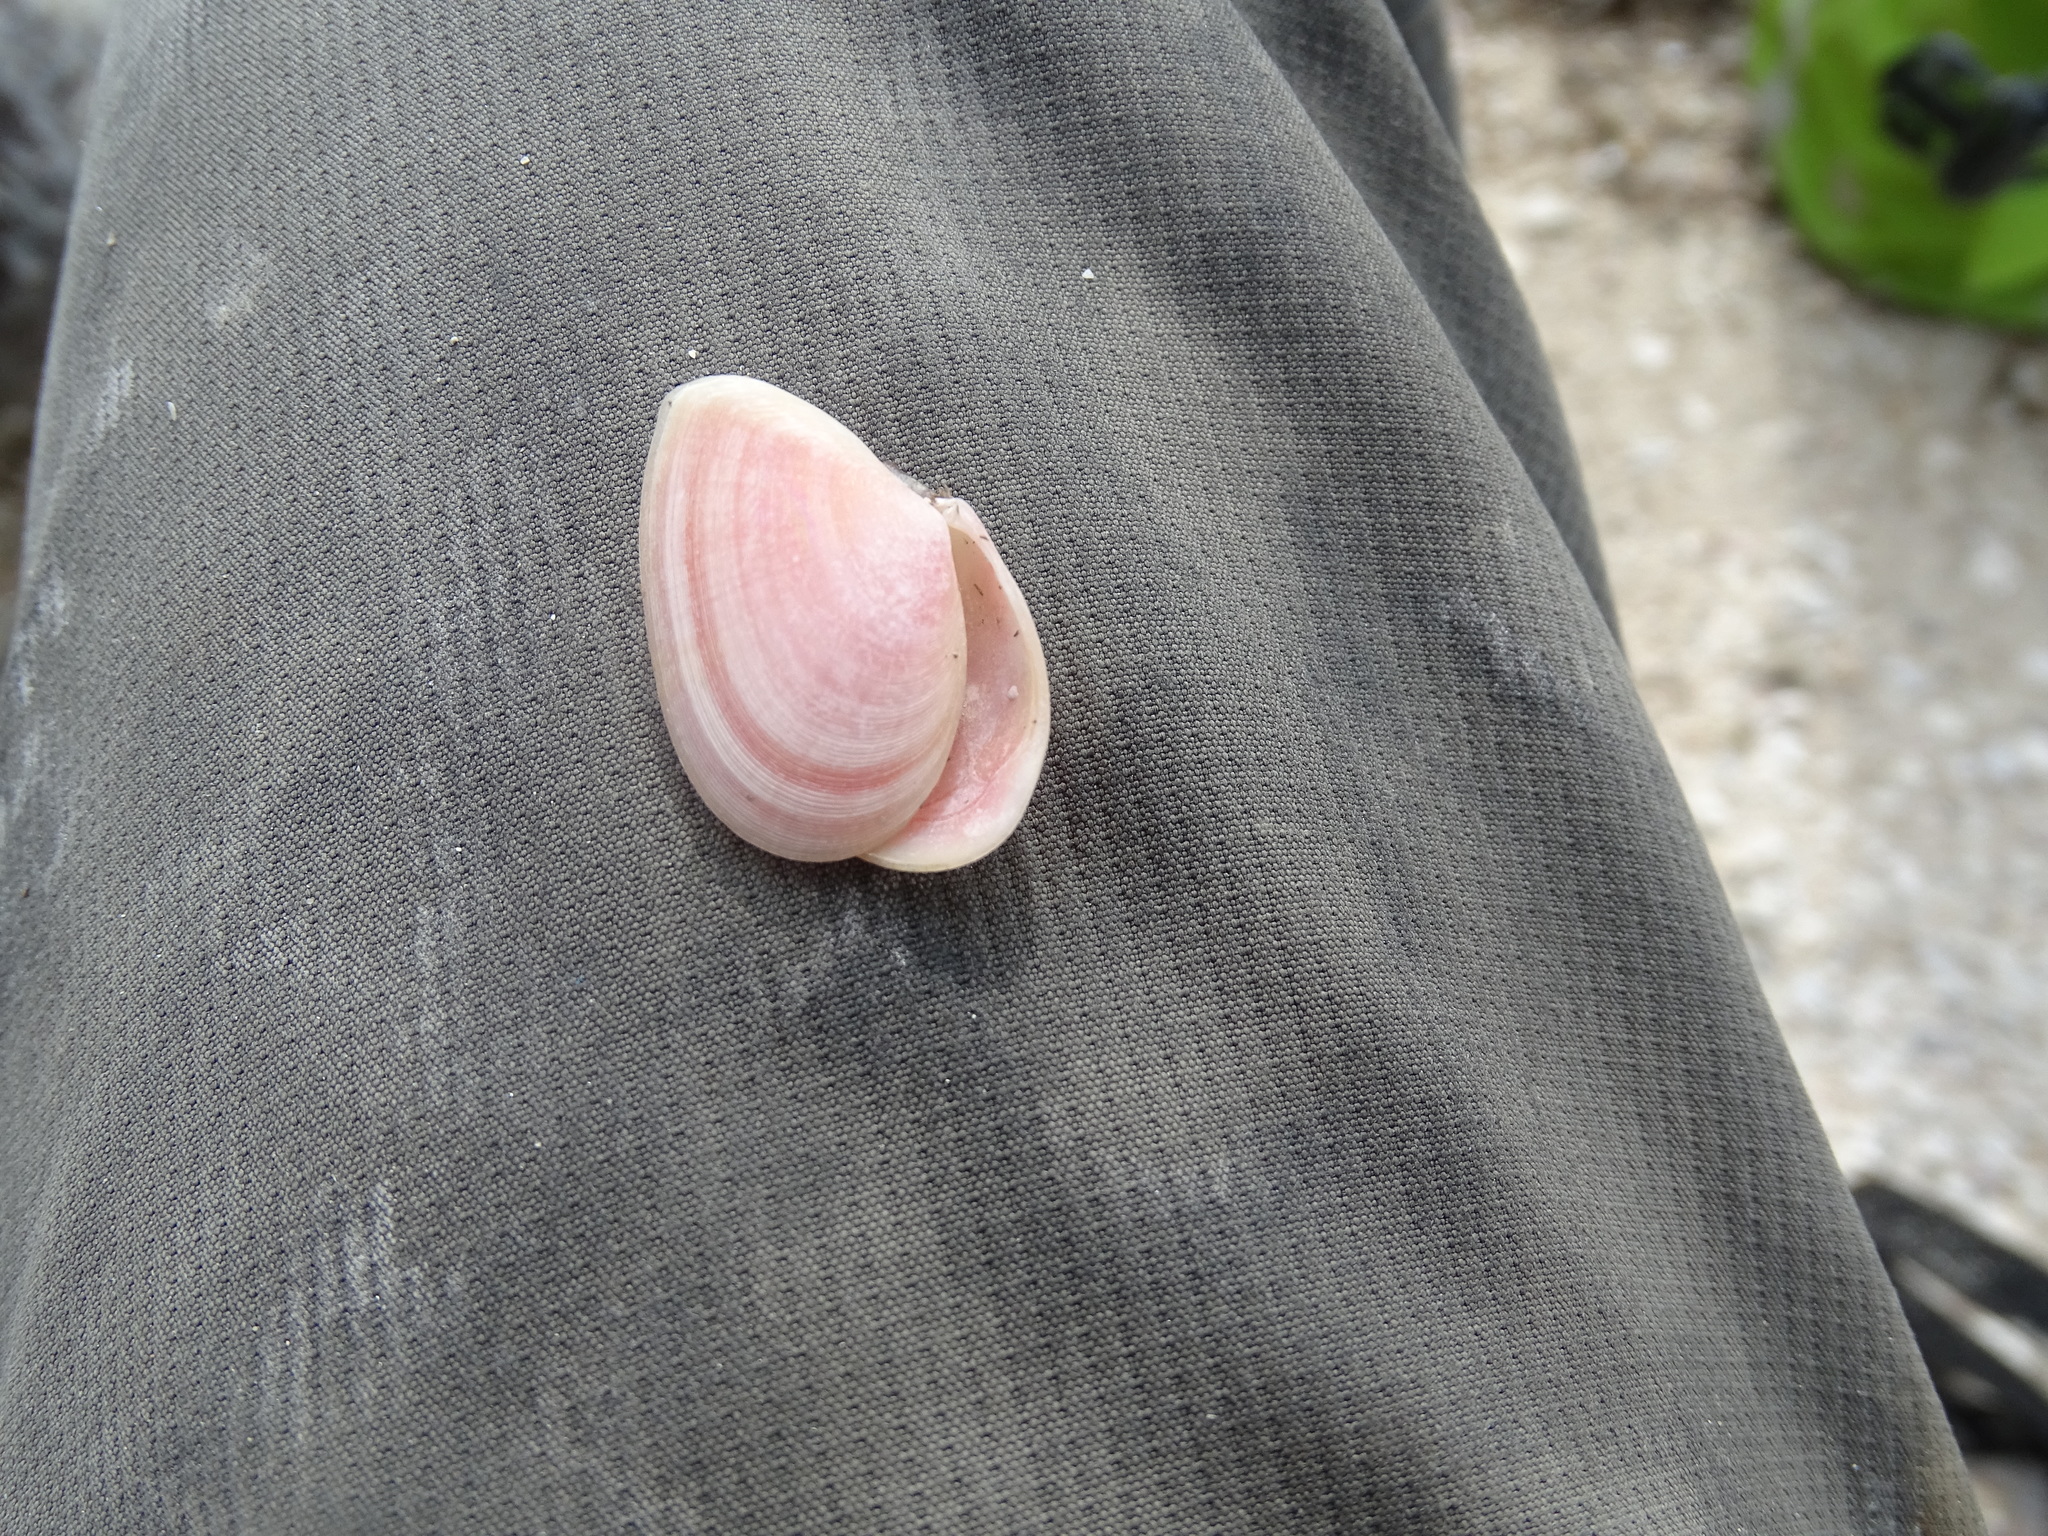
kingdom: Animalia
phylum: Mollusca
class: Bivalvia
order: Cardiida
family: Tellinidae
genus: Eurytellina
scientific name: Eurytellina lineata
